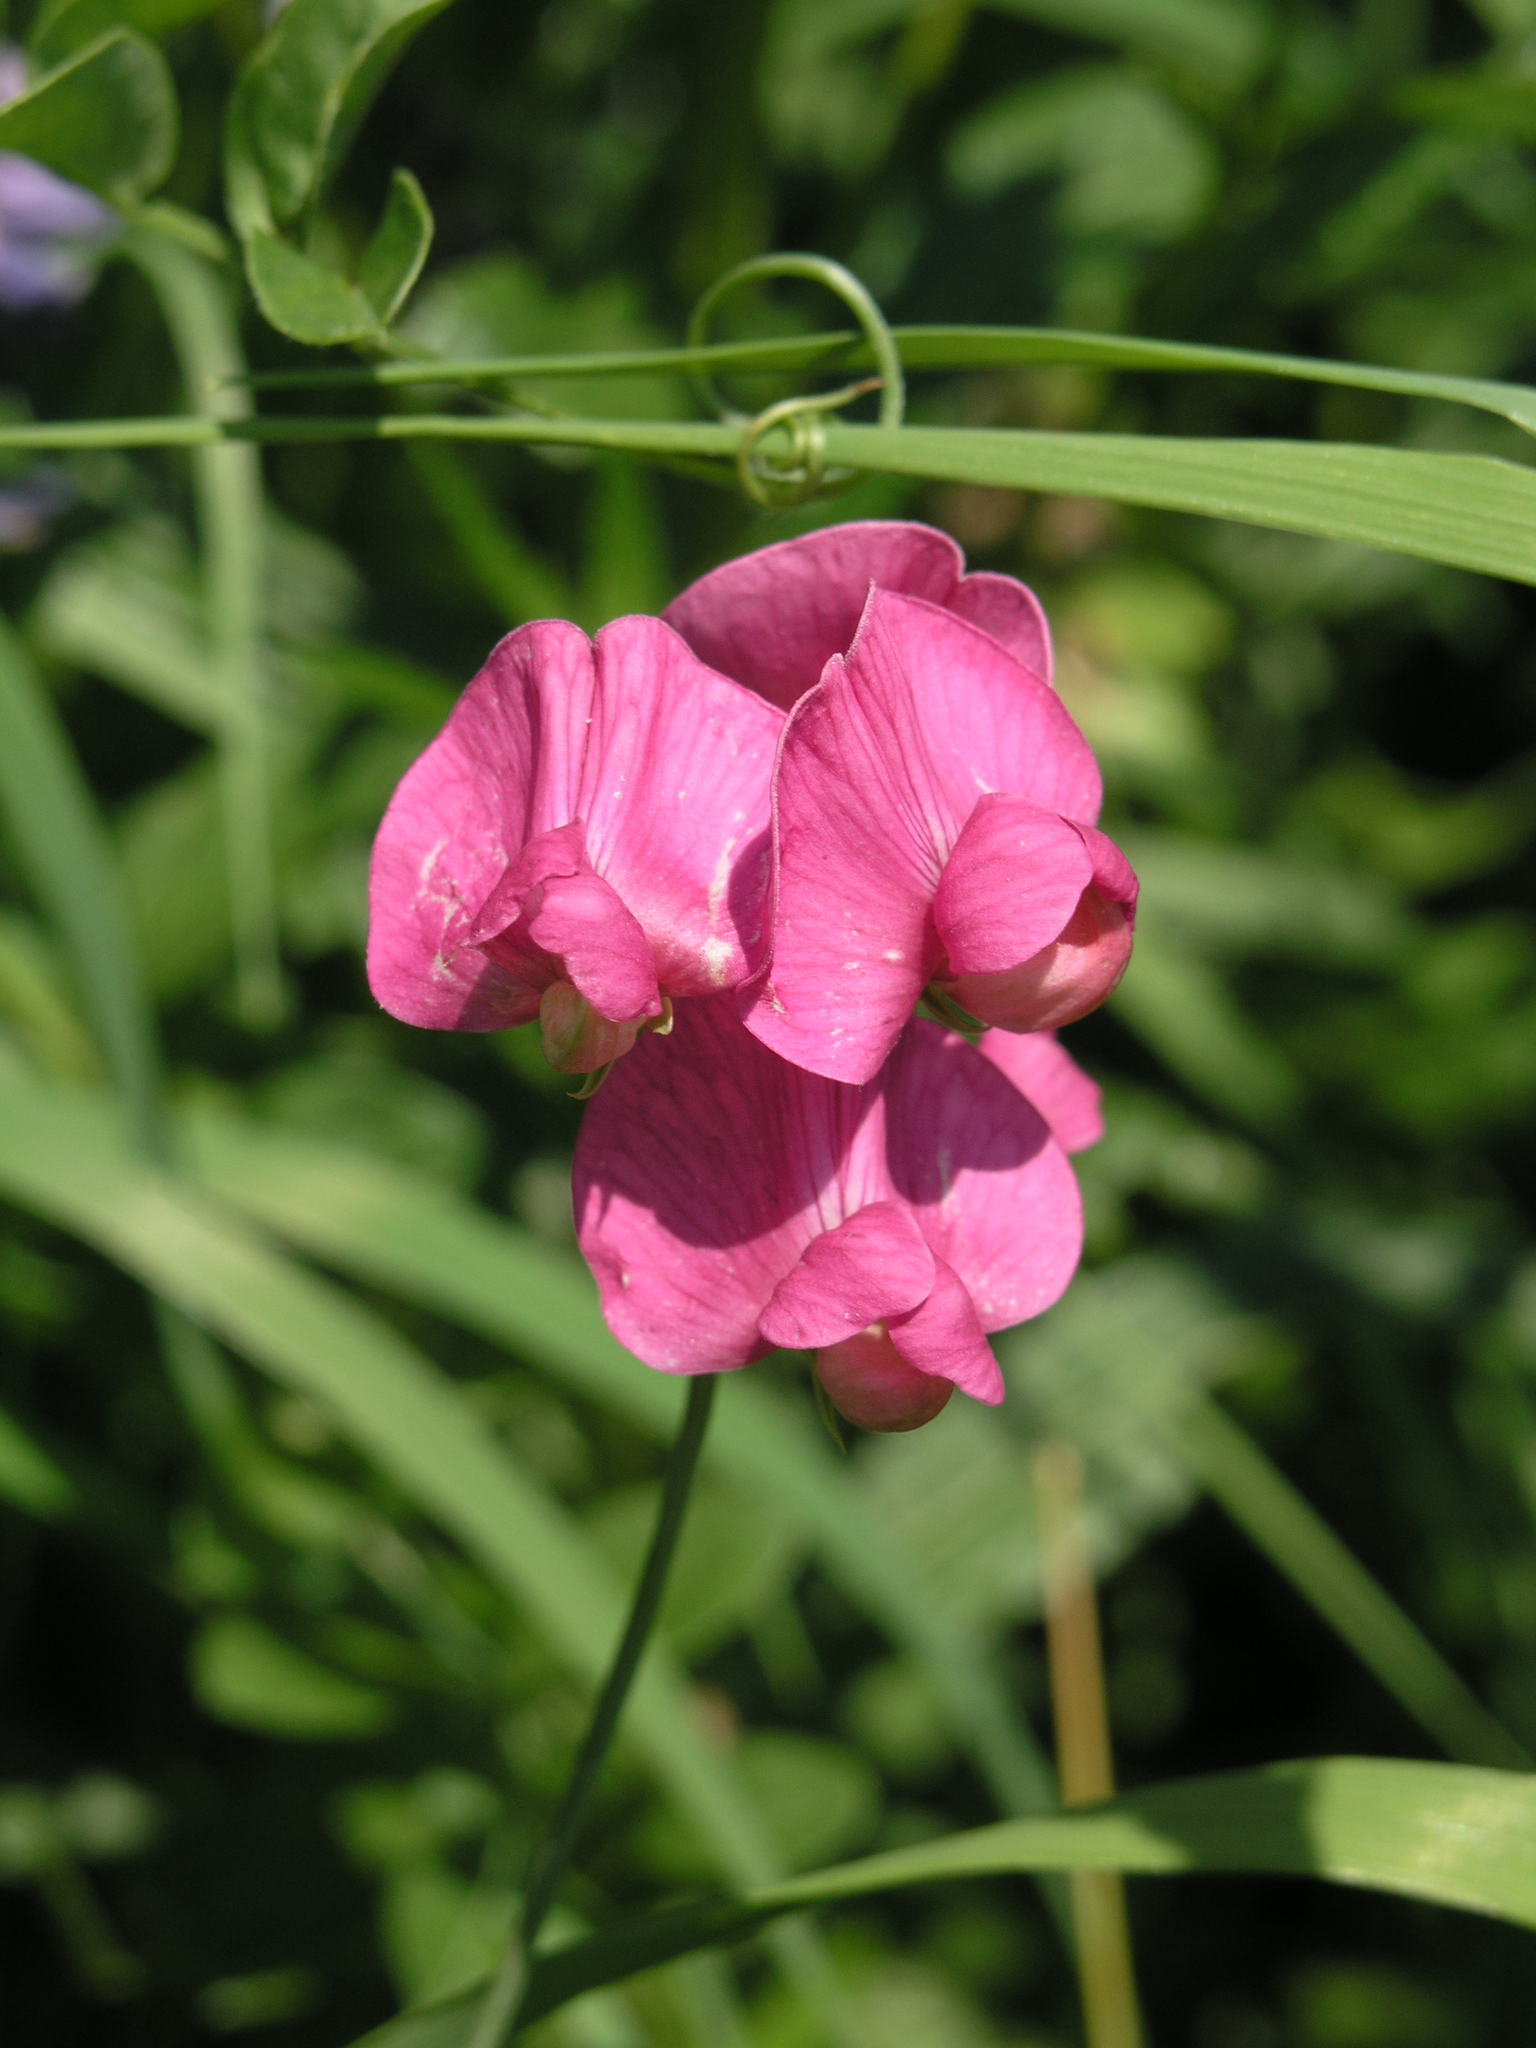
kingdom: Plantae
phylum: Tracheophyta
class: Magnoliopsida
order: Fabales
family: Fabaceae
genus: Lathyrus
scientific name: Lathyrus tuberosus
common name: Tuberous pea
